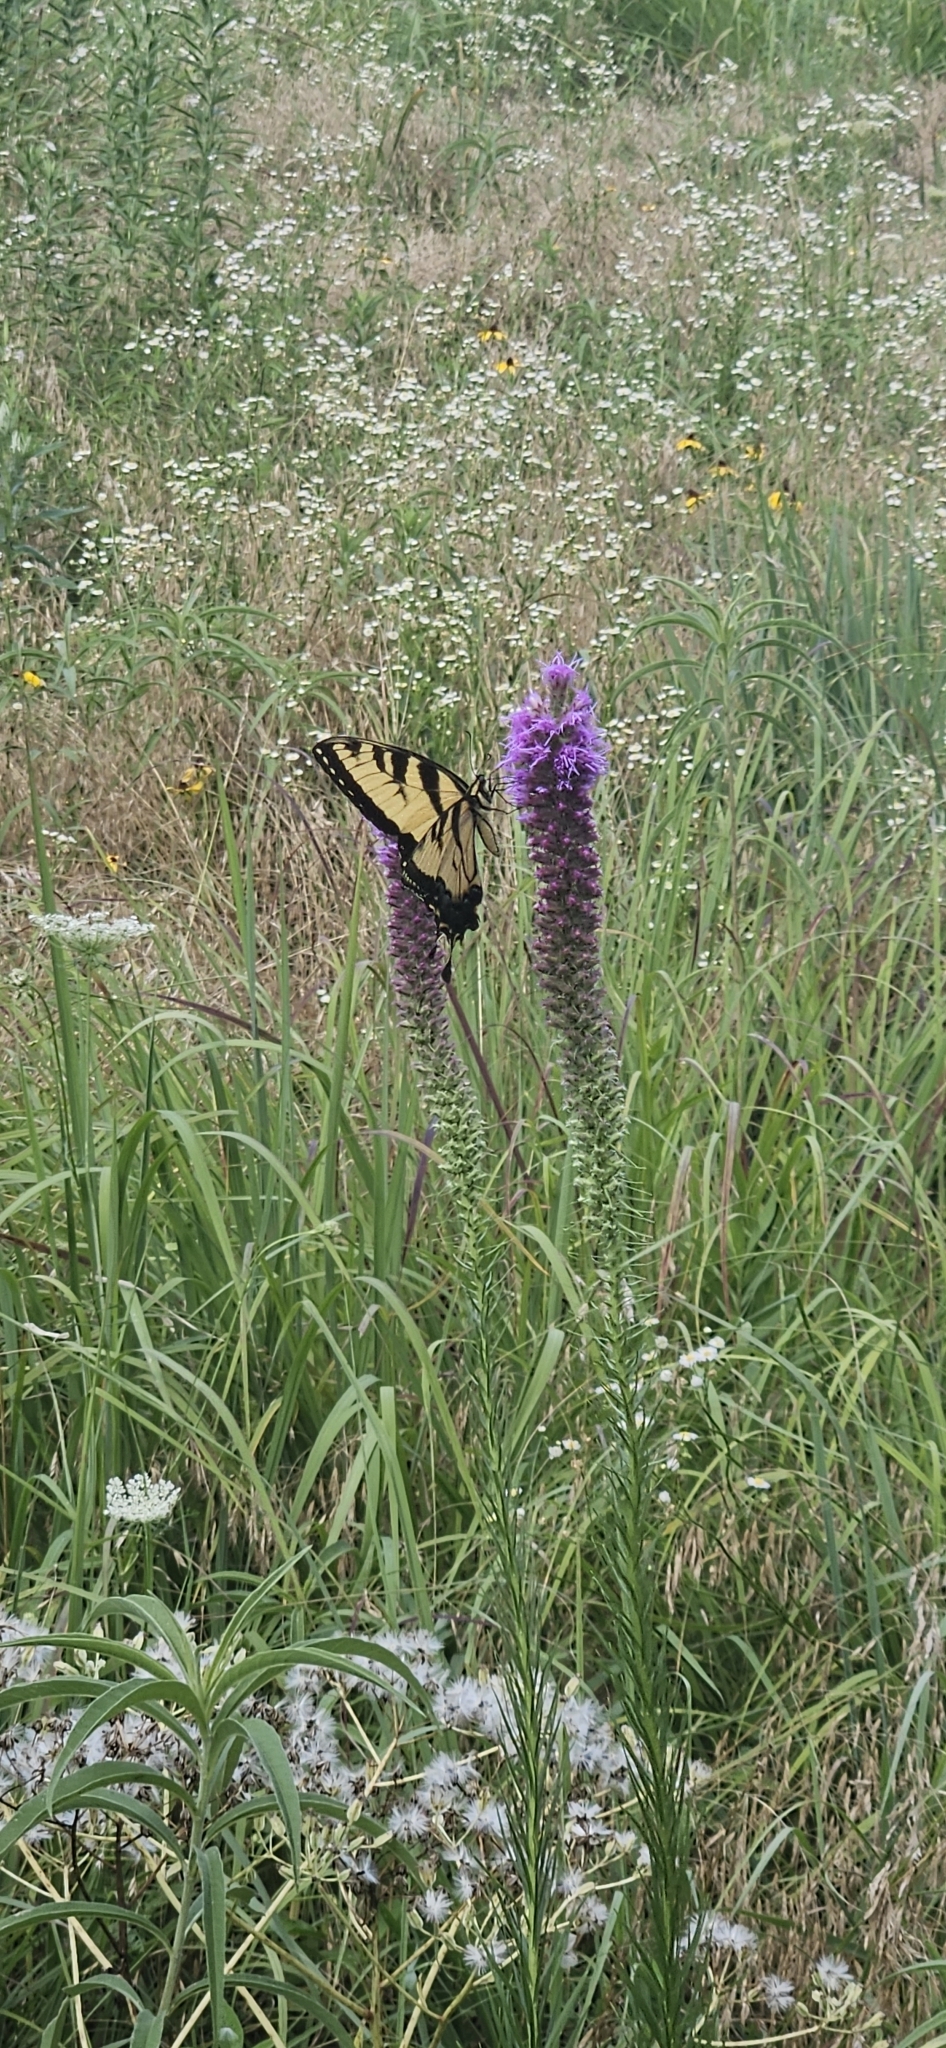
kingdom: Animalia
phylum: Arthropoda
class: Insecta
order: Lepidoptera
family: Papilionidae
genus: Papilio
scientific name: Papilio glaucus
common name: Tiger swallowtail
